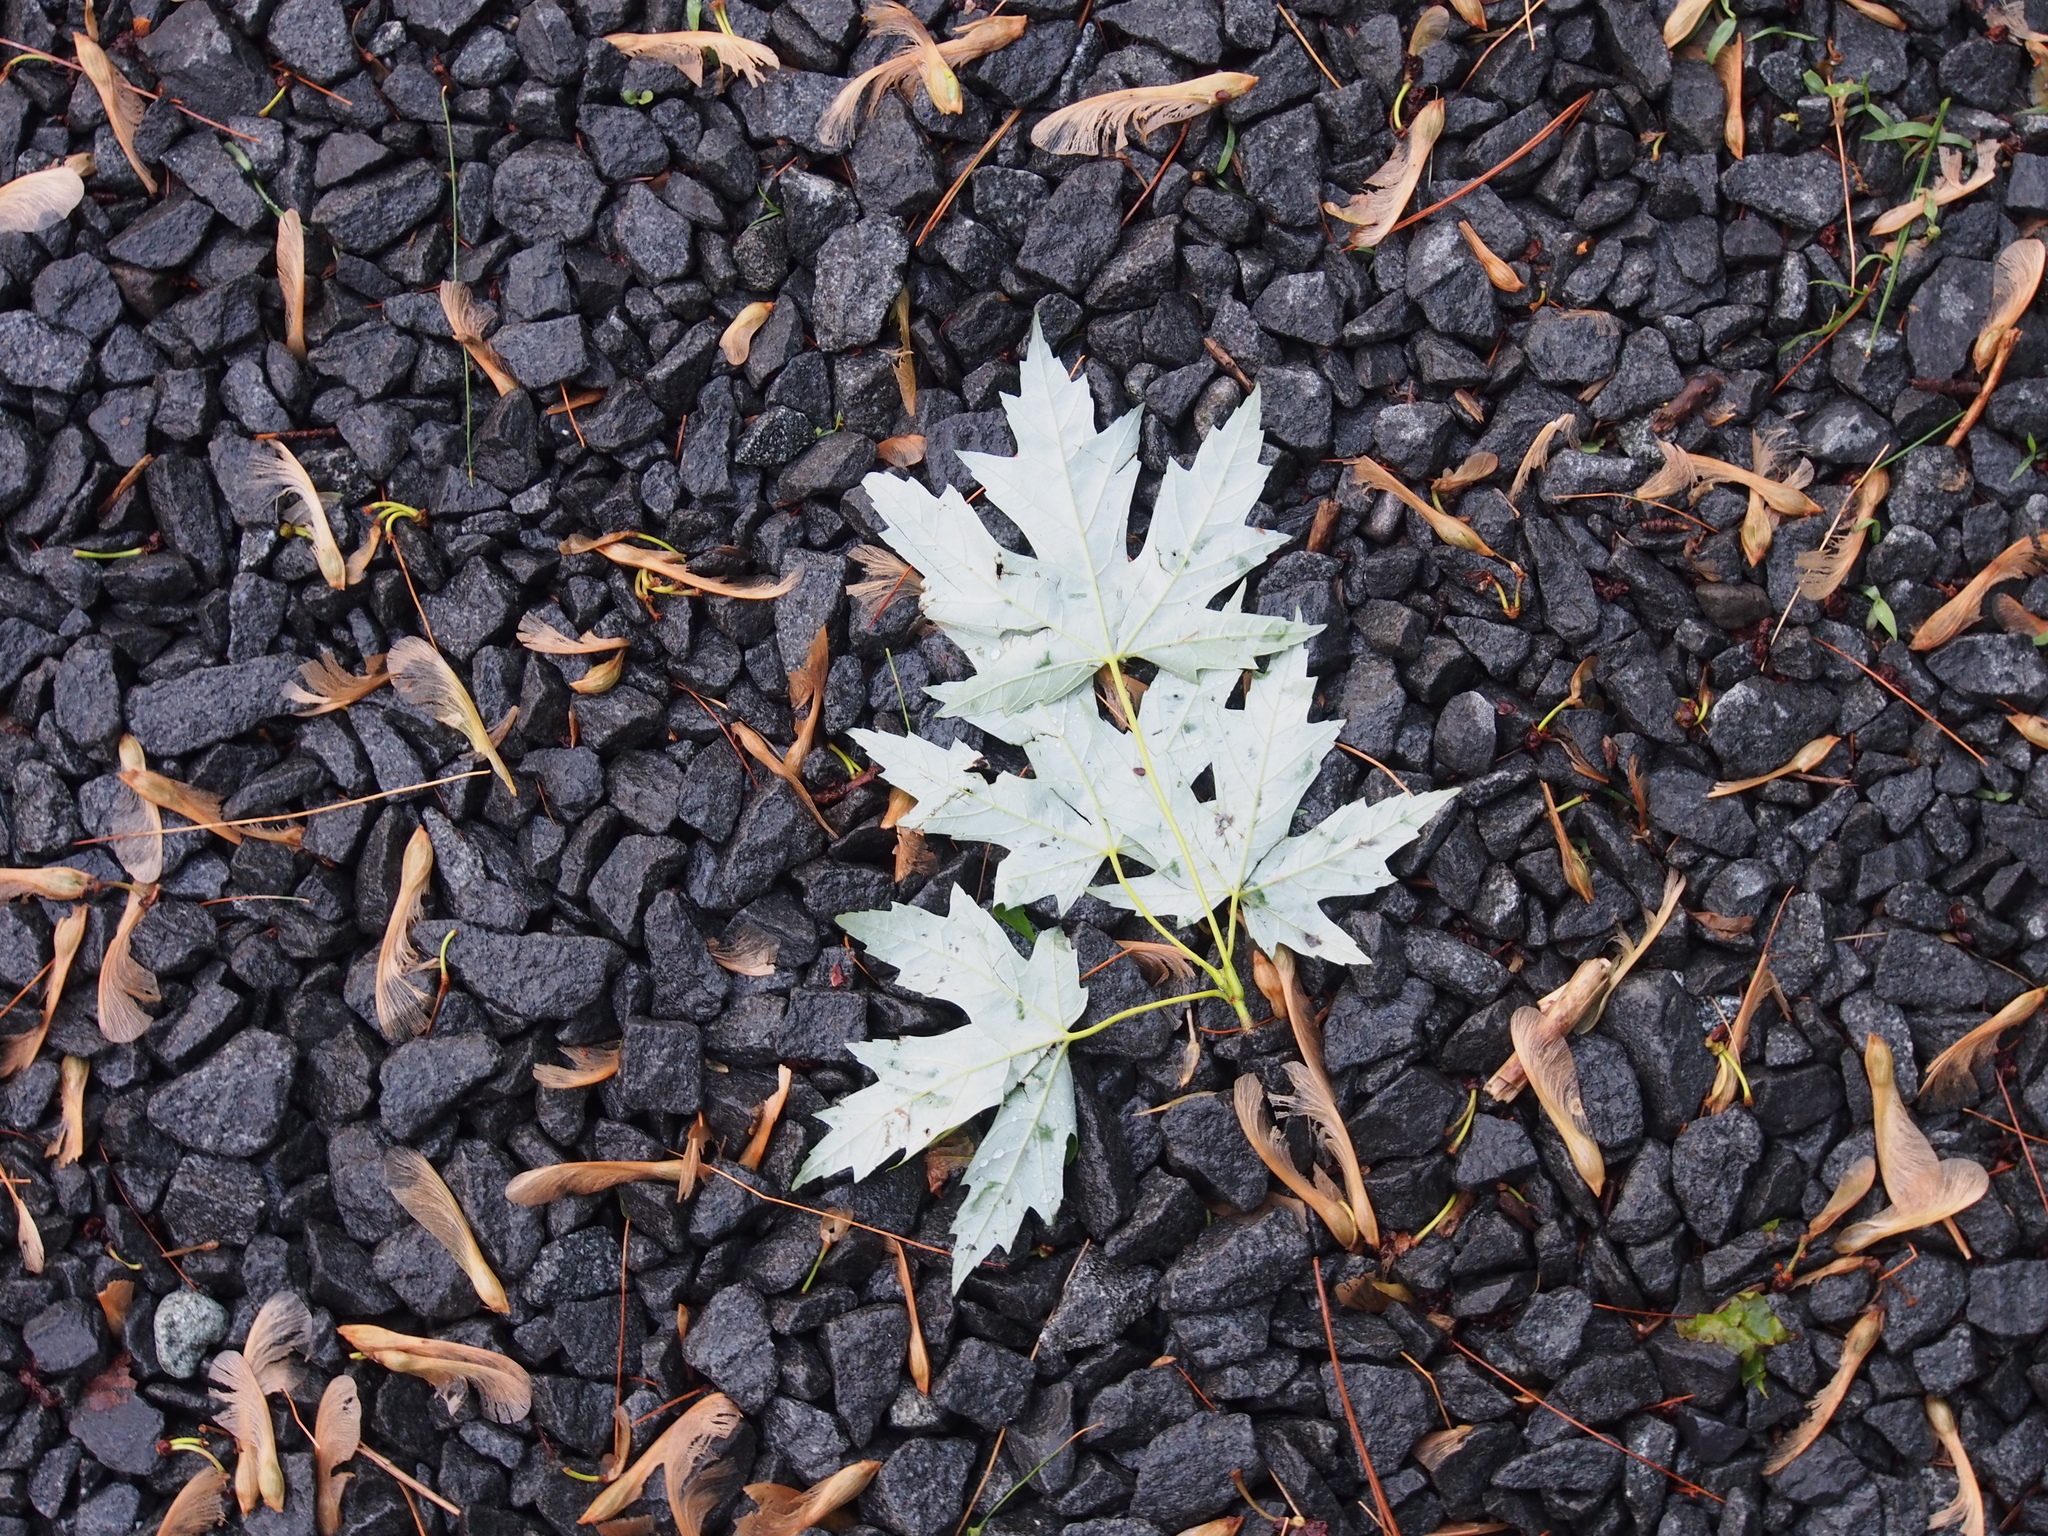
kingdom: Plantae
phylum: Tracheophyta
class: Magnoliopsida
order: Sapindales
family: Sapindaceae
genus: Acer
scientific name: Acer saccharinum
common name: Silver maple
